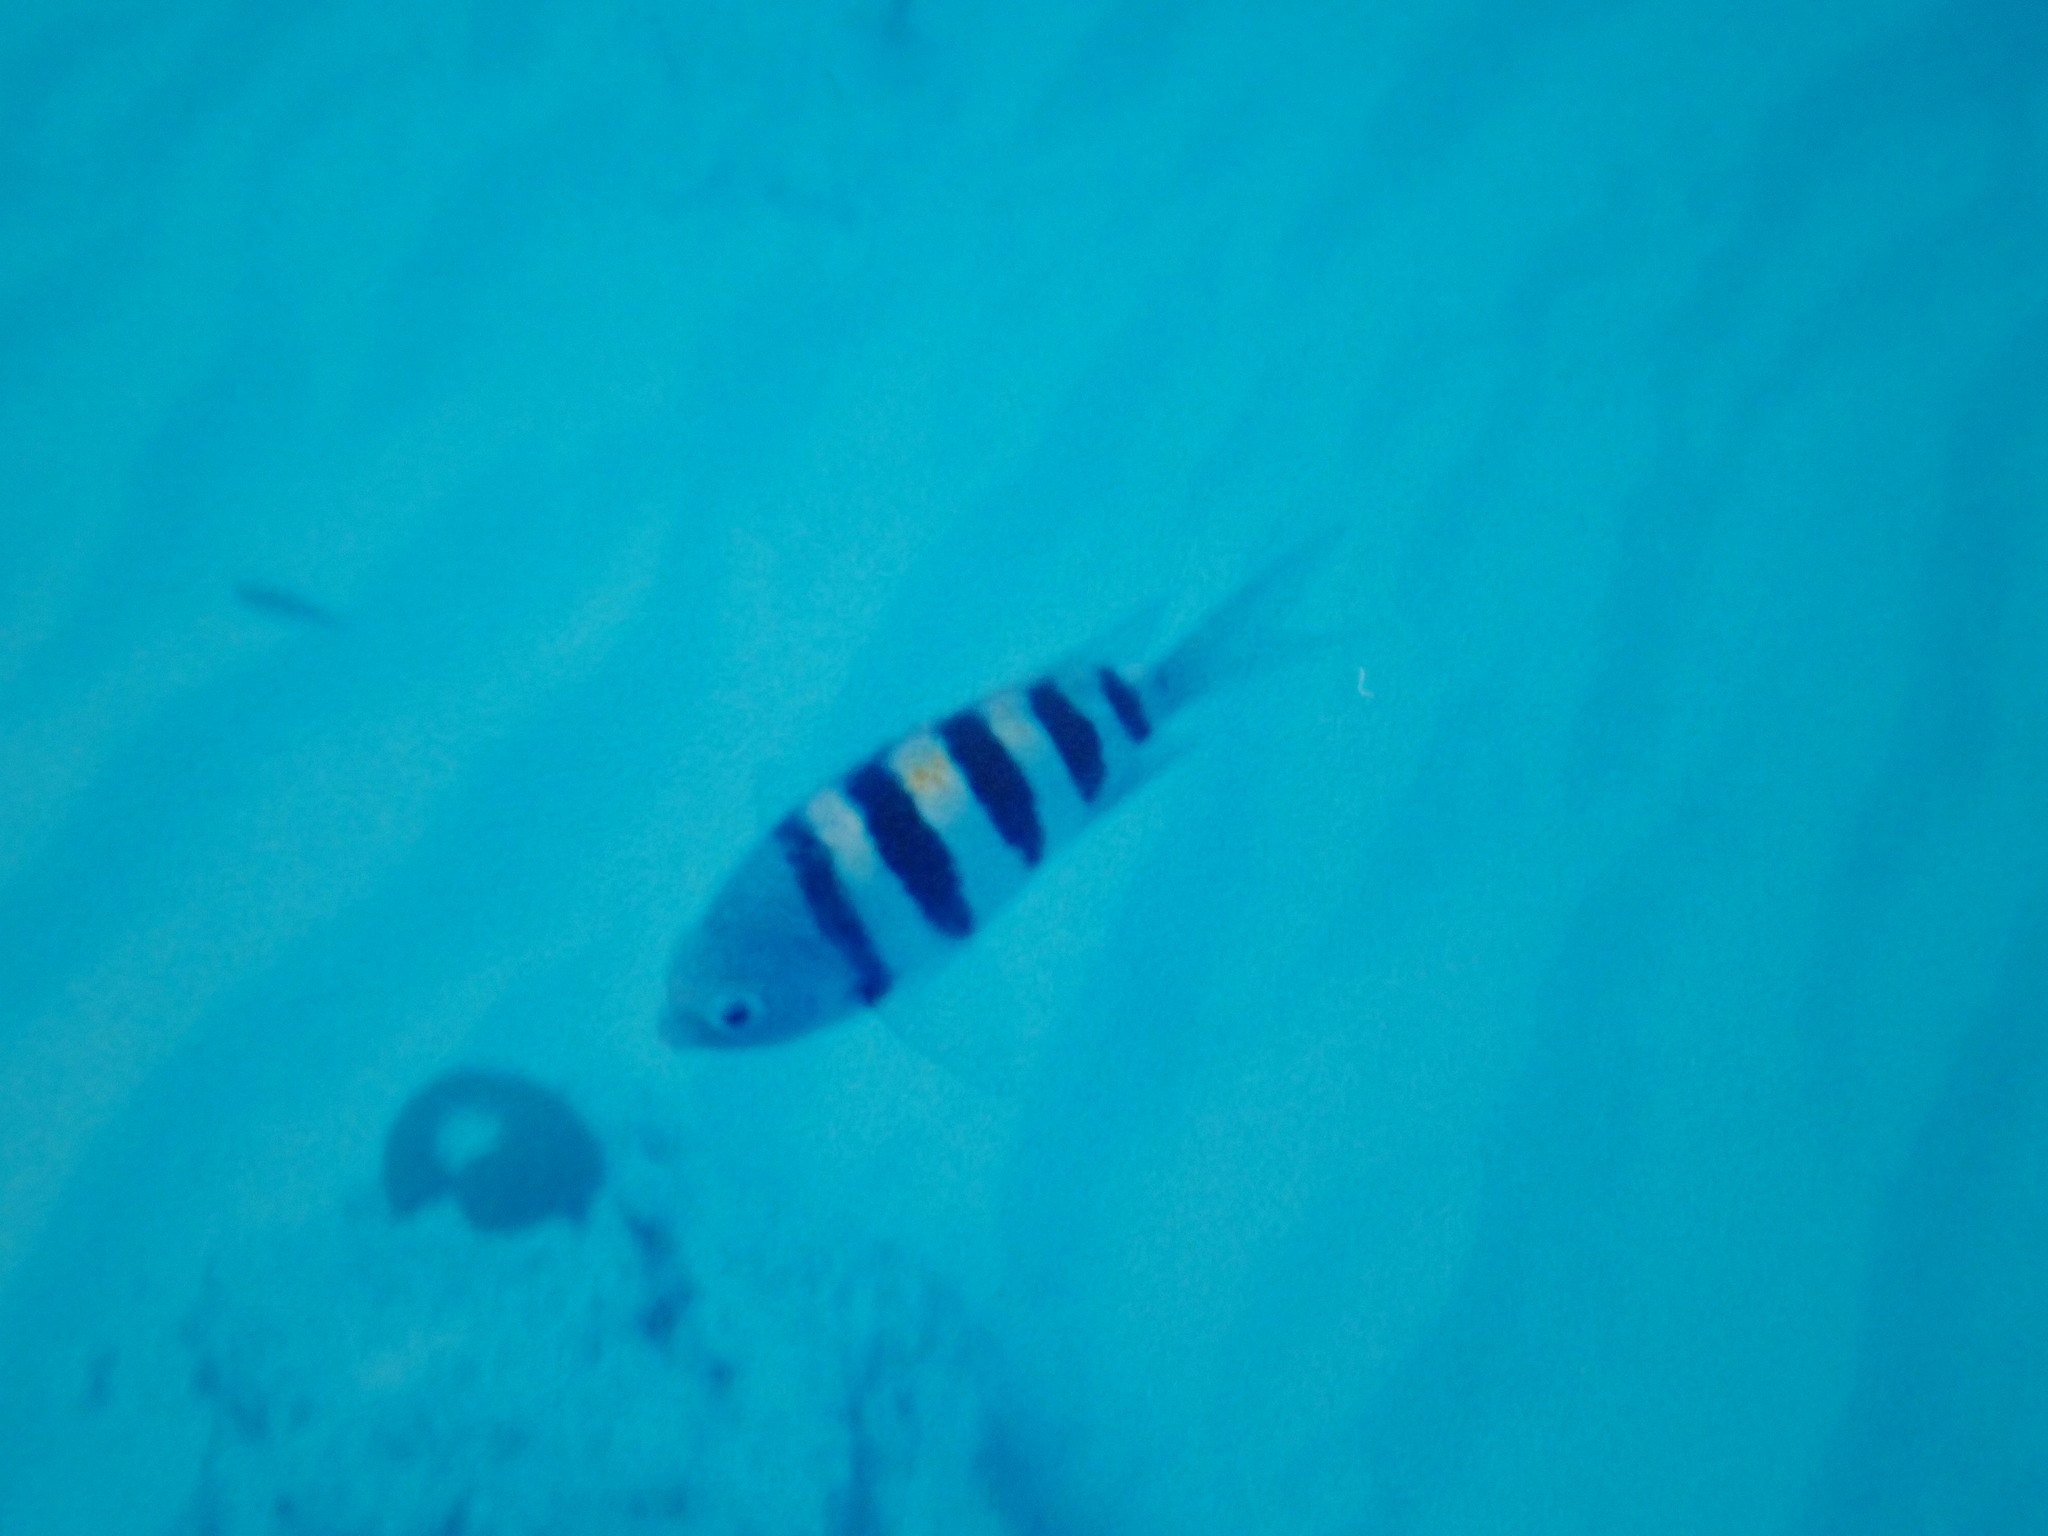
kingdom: Animalia
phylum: Chordata
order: Perciformes
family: Pomacentridae
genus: Abudefduf
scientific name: Abudefduf saxatilis
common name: Sergeant major
